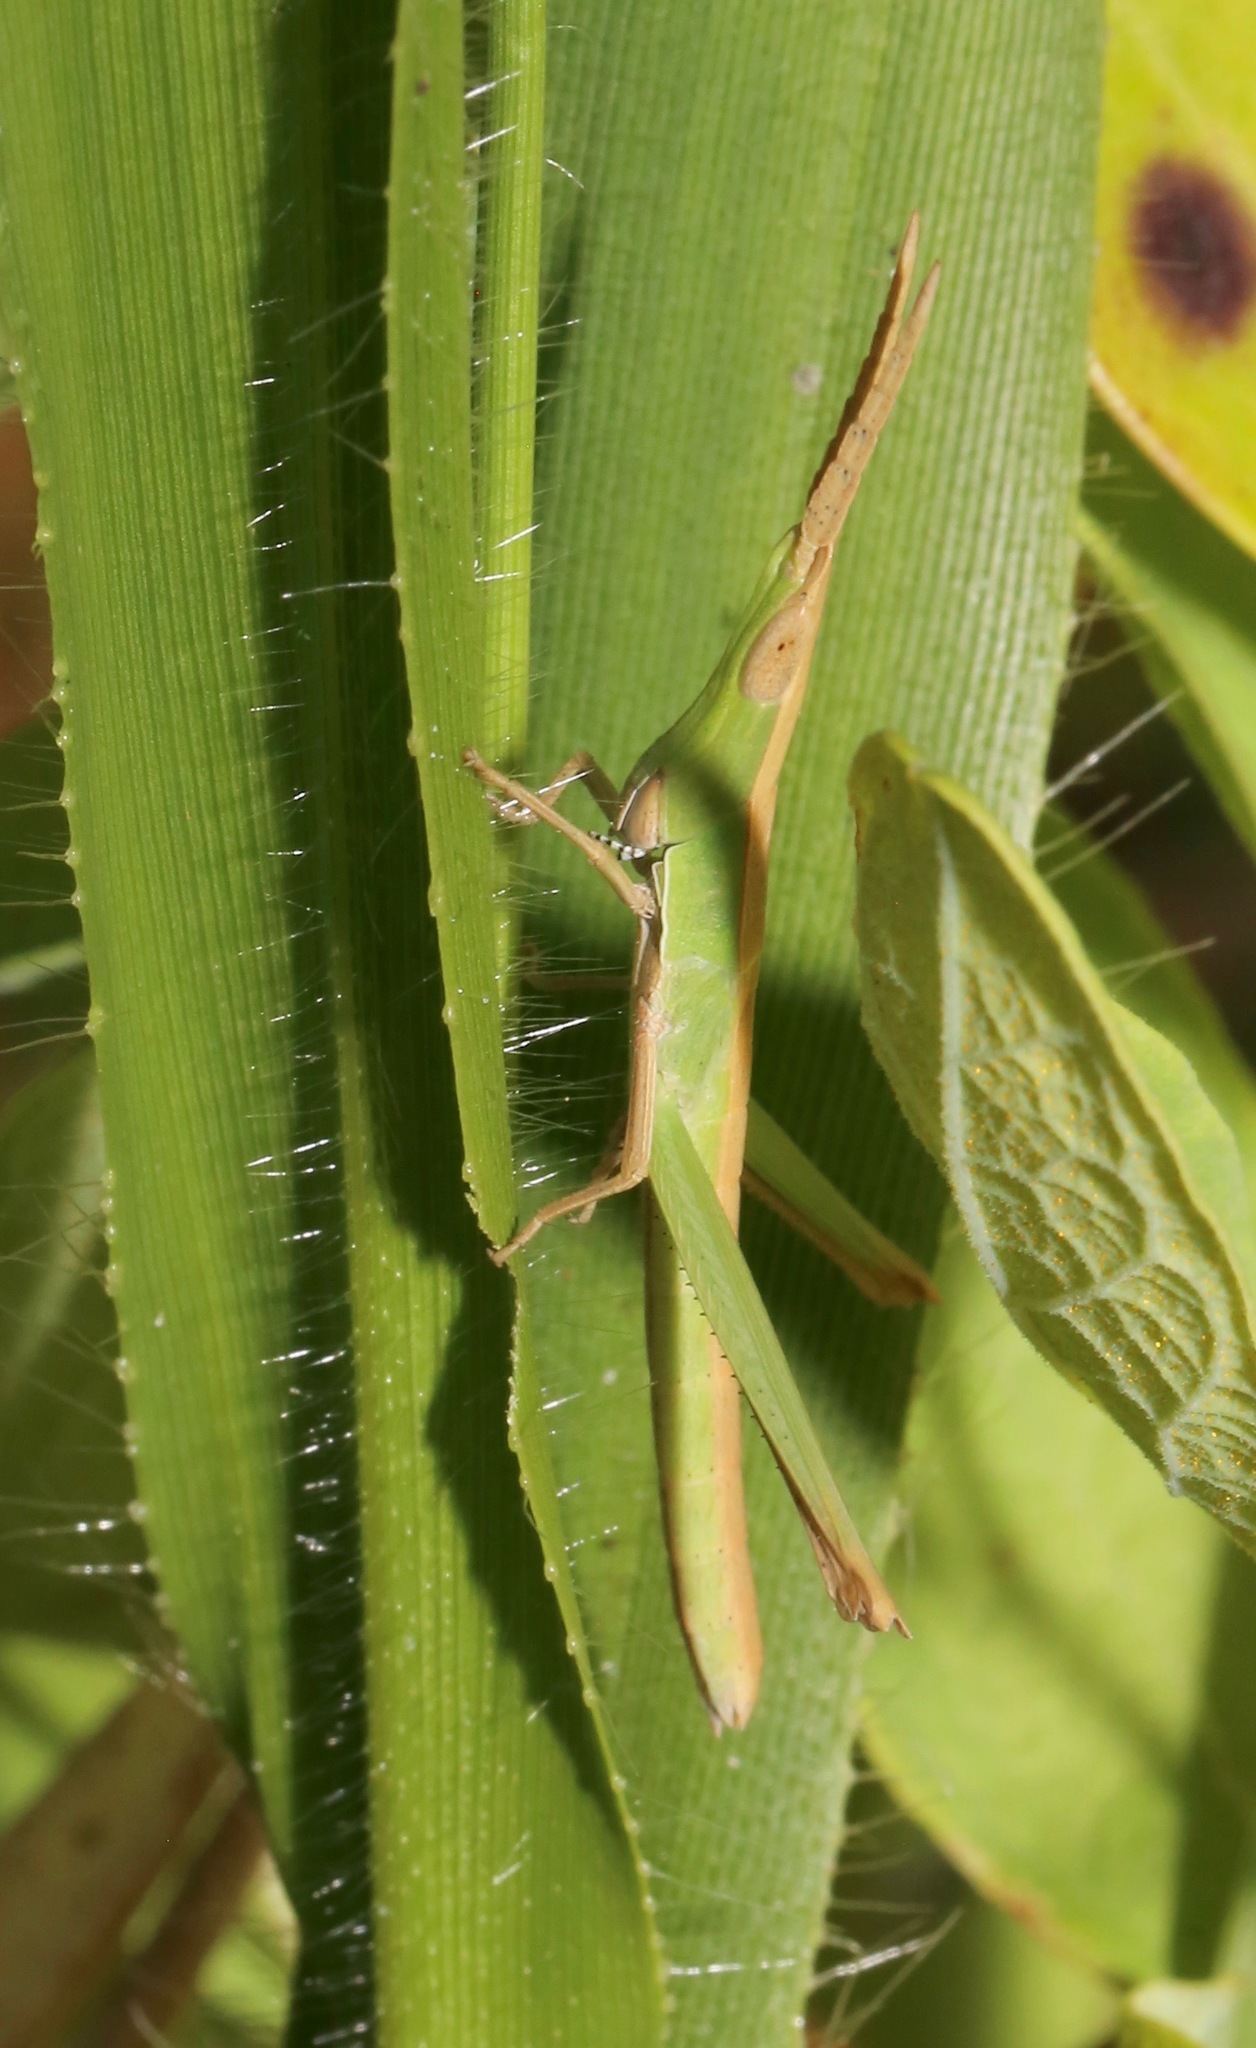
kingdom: Animalia
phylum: Arthropoda
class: Insecta
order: Orthoptera
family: Acrididae
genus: Achurum
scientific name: Achurum carinatum
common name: Long-headed toothpick grasshopper
